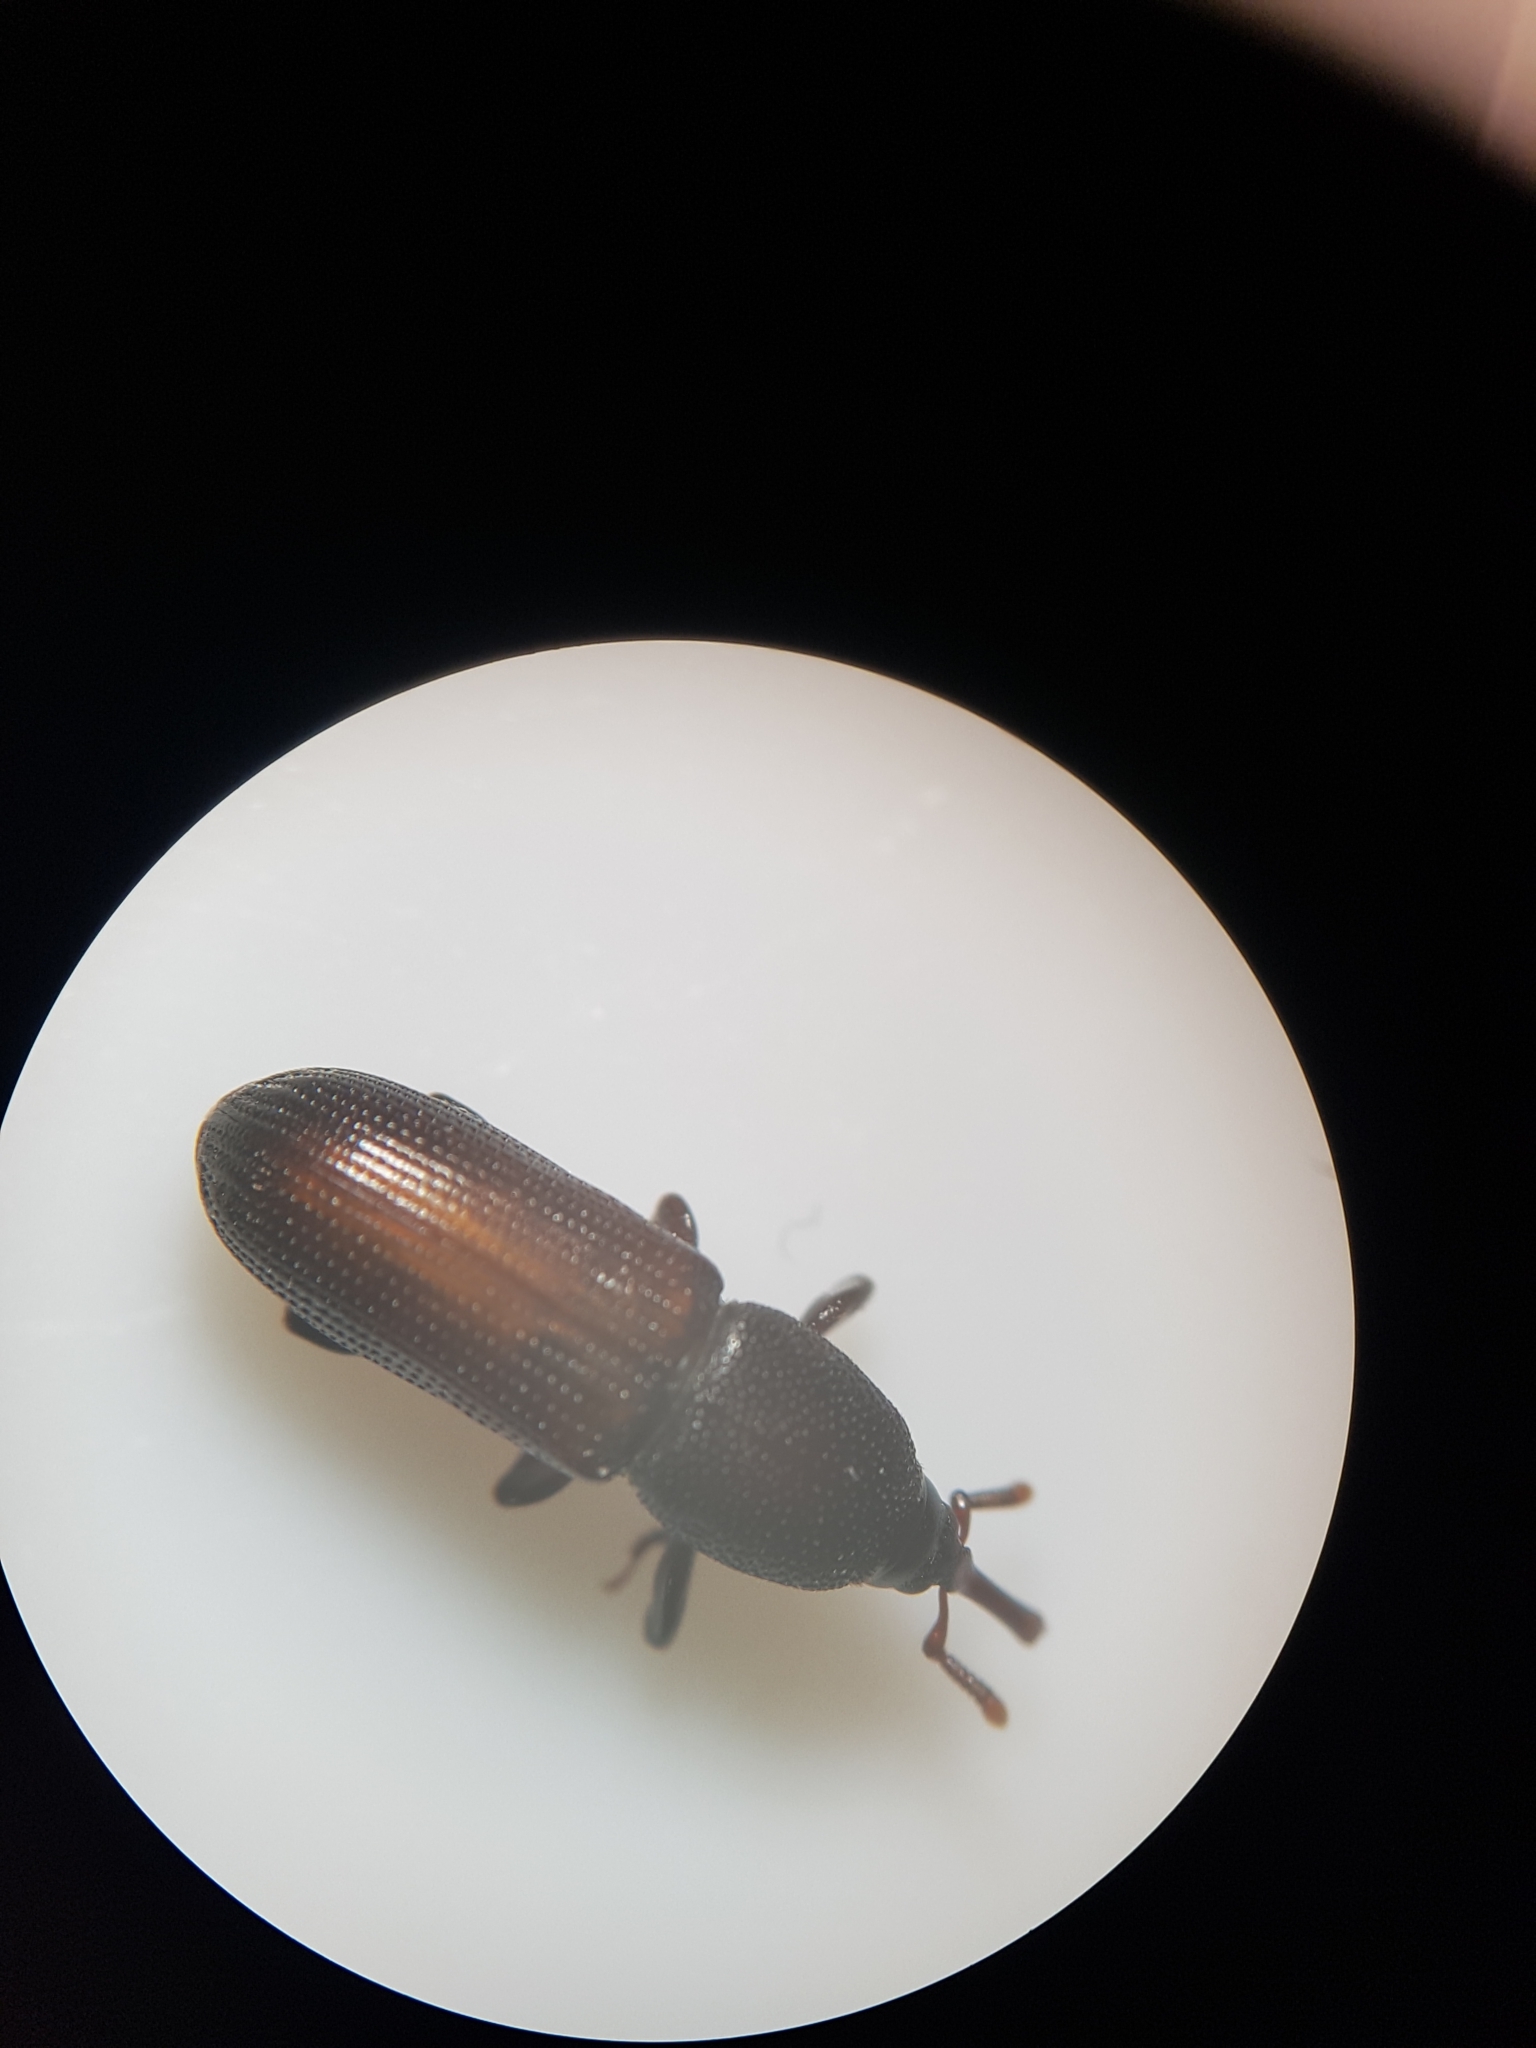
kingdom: Animalia
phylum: Arthropoda
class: Insecta
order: Coleoptera
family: Curculionidae
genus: Mesites
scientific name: Mesites pallidipennis
